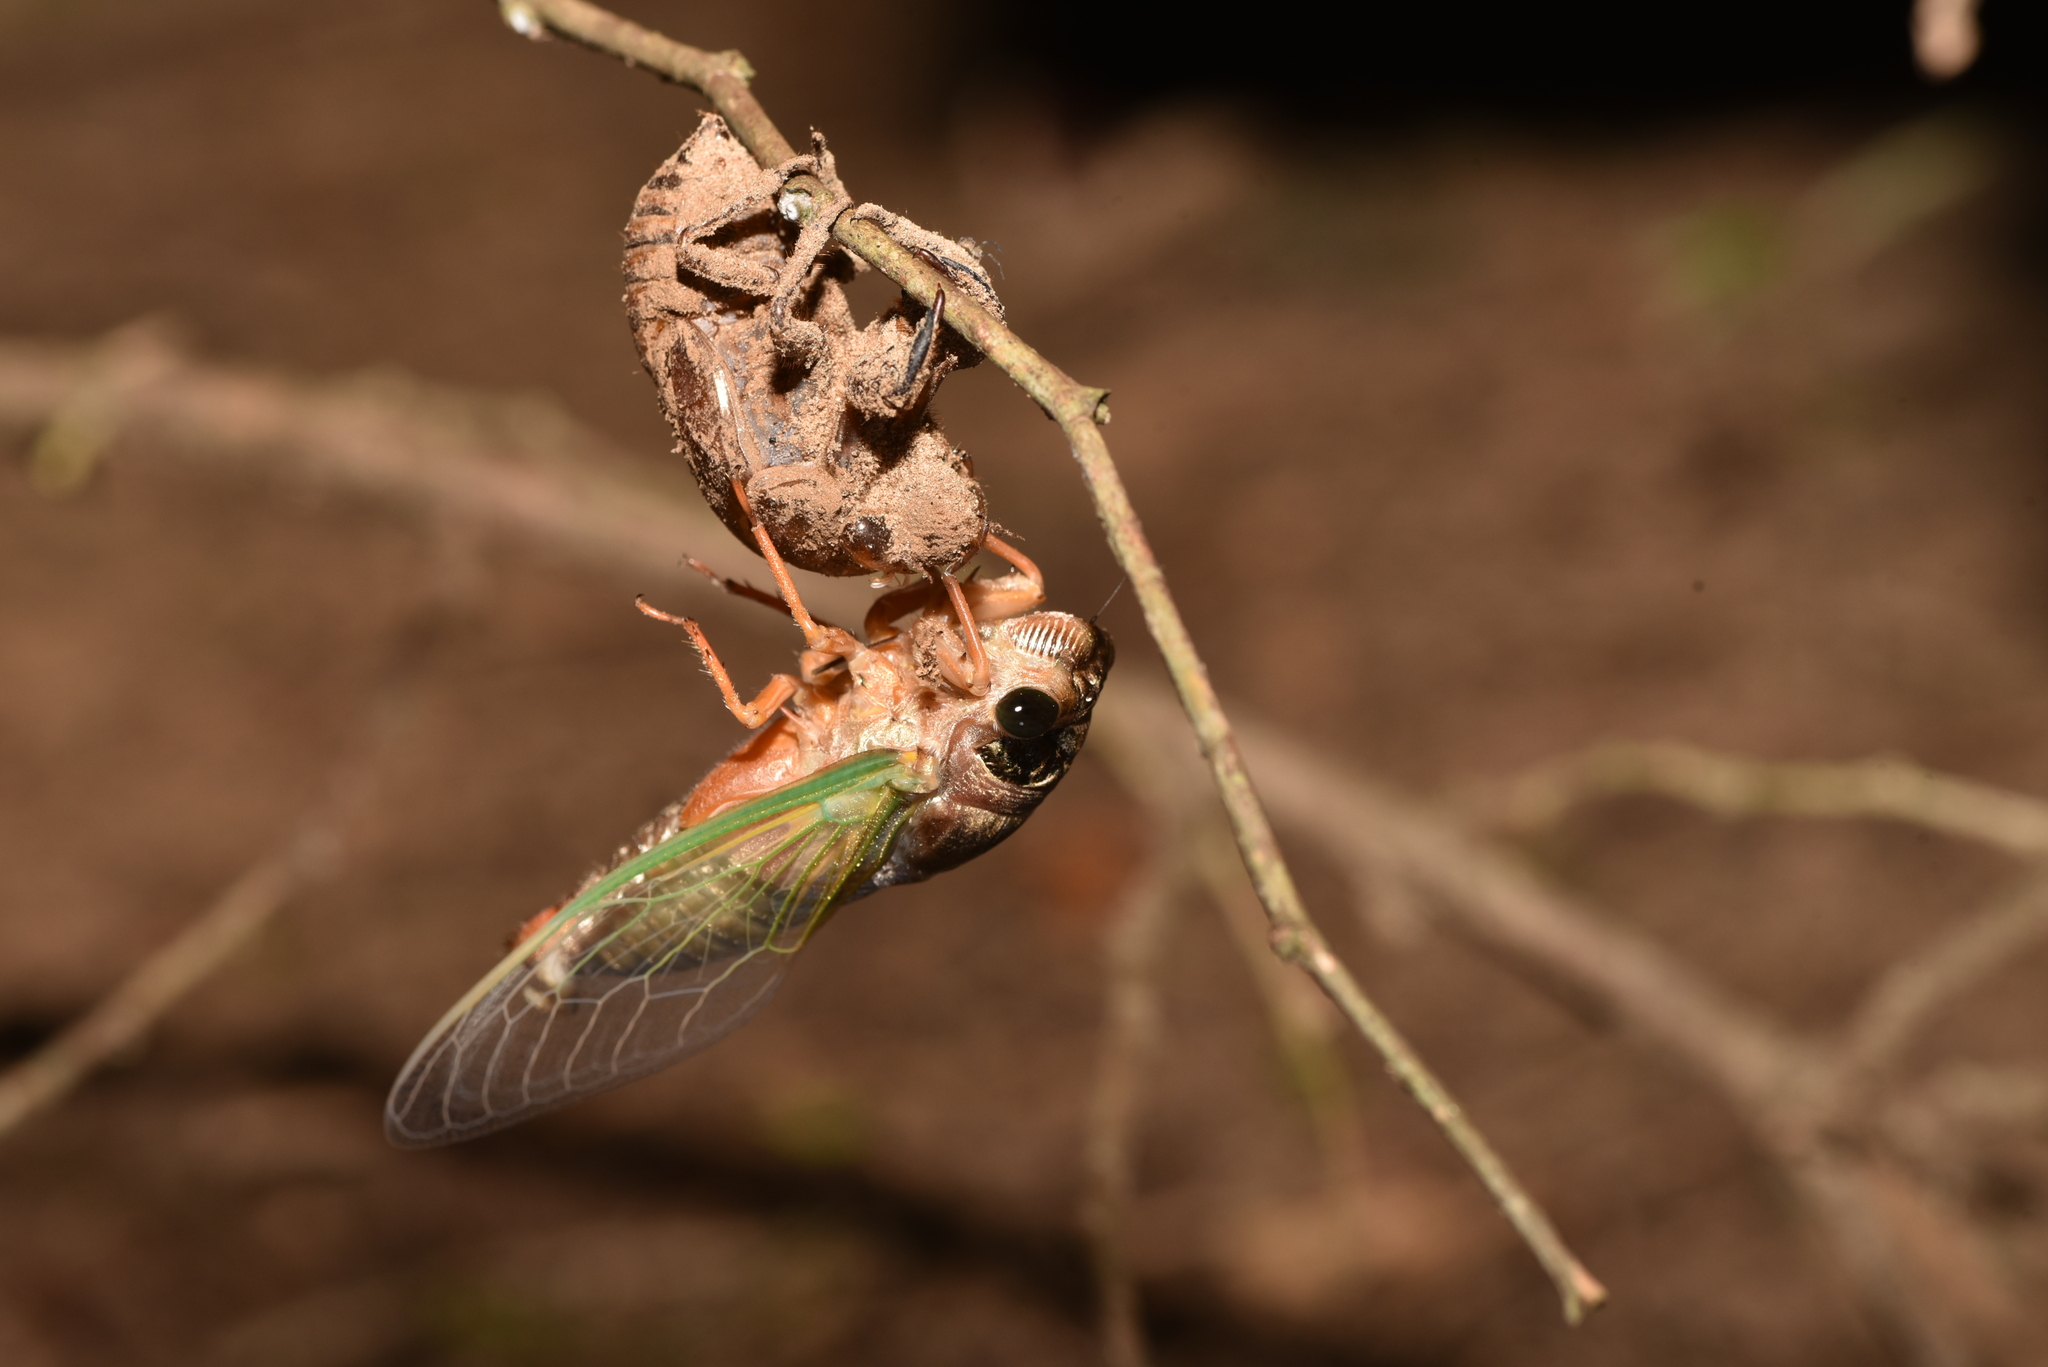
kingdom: Animalia
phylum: Arthropoda
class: Insecta
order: Hemiptera
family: Cicadidae
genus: Cryptotympana
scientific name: Cryptotympana takasagona
